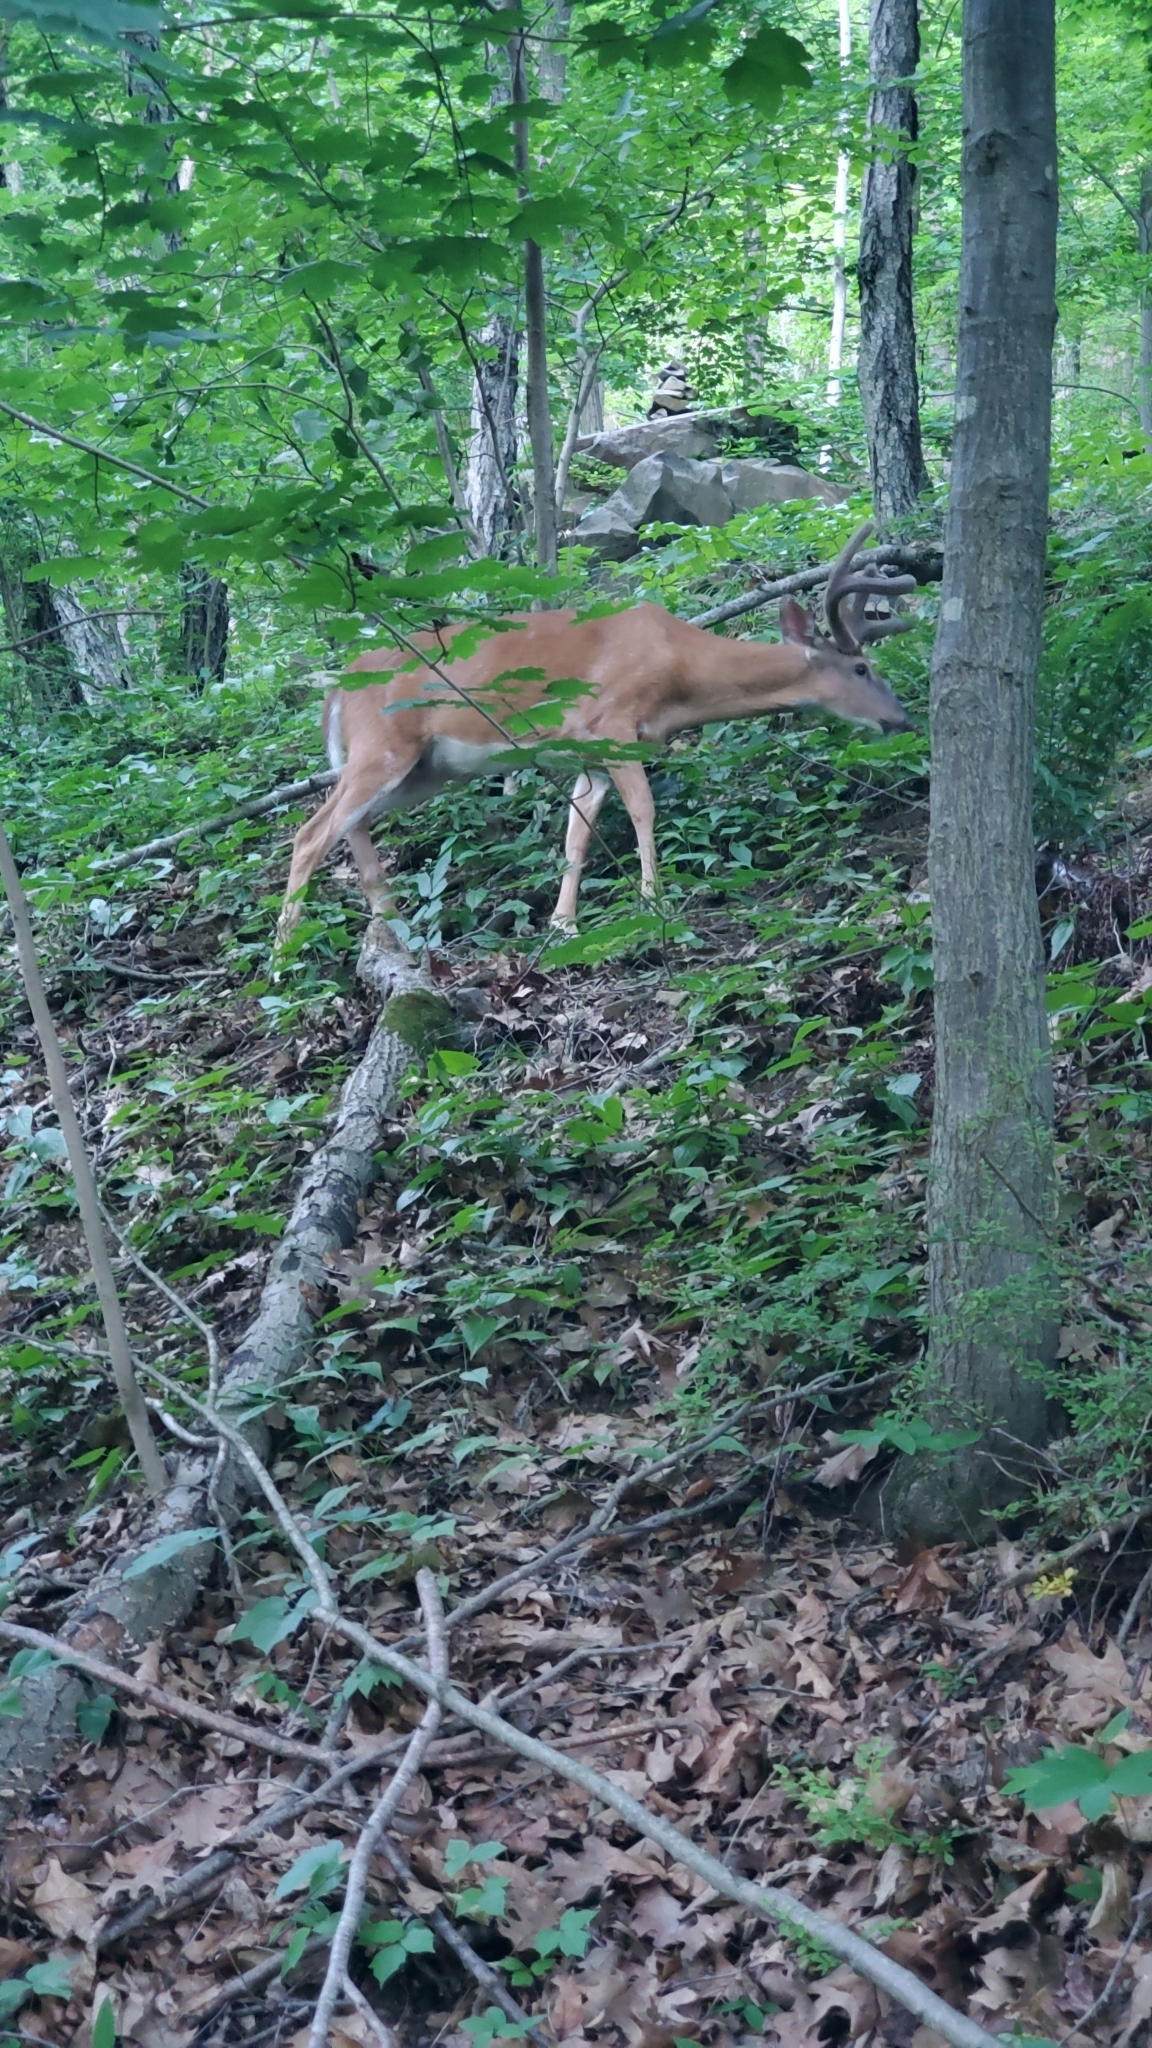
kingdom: Animalia
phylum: Chordata
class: Mammalia
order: Artiodactyla
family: Cervidae
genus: Odocoileus
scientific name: Odocoileus virginianus
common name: White-tailed deer
